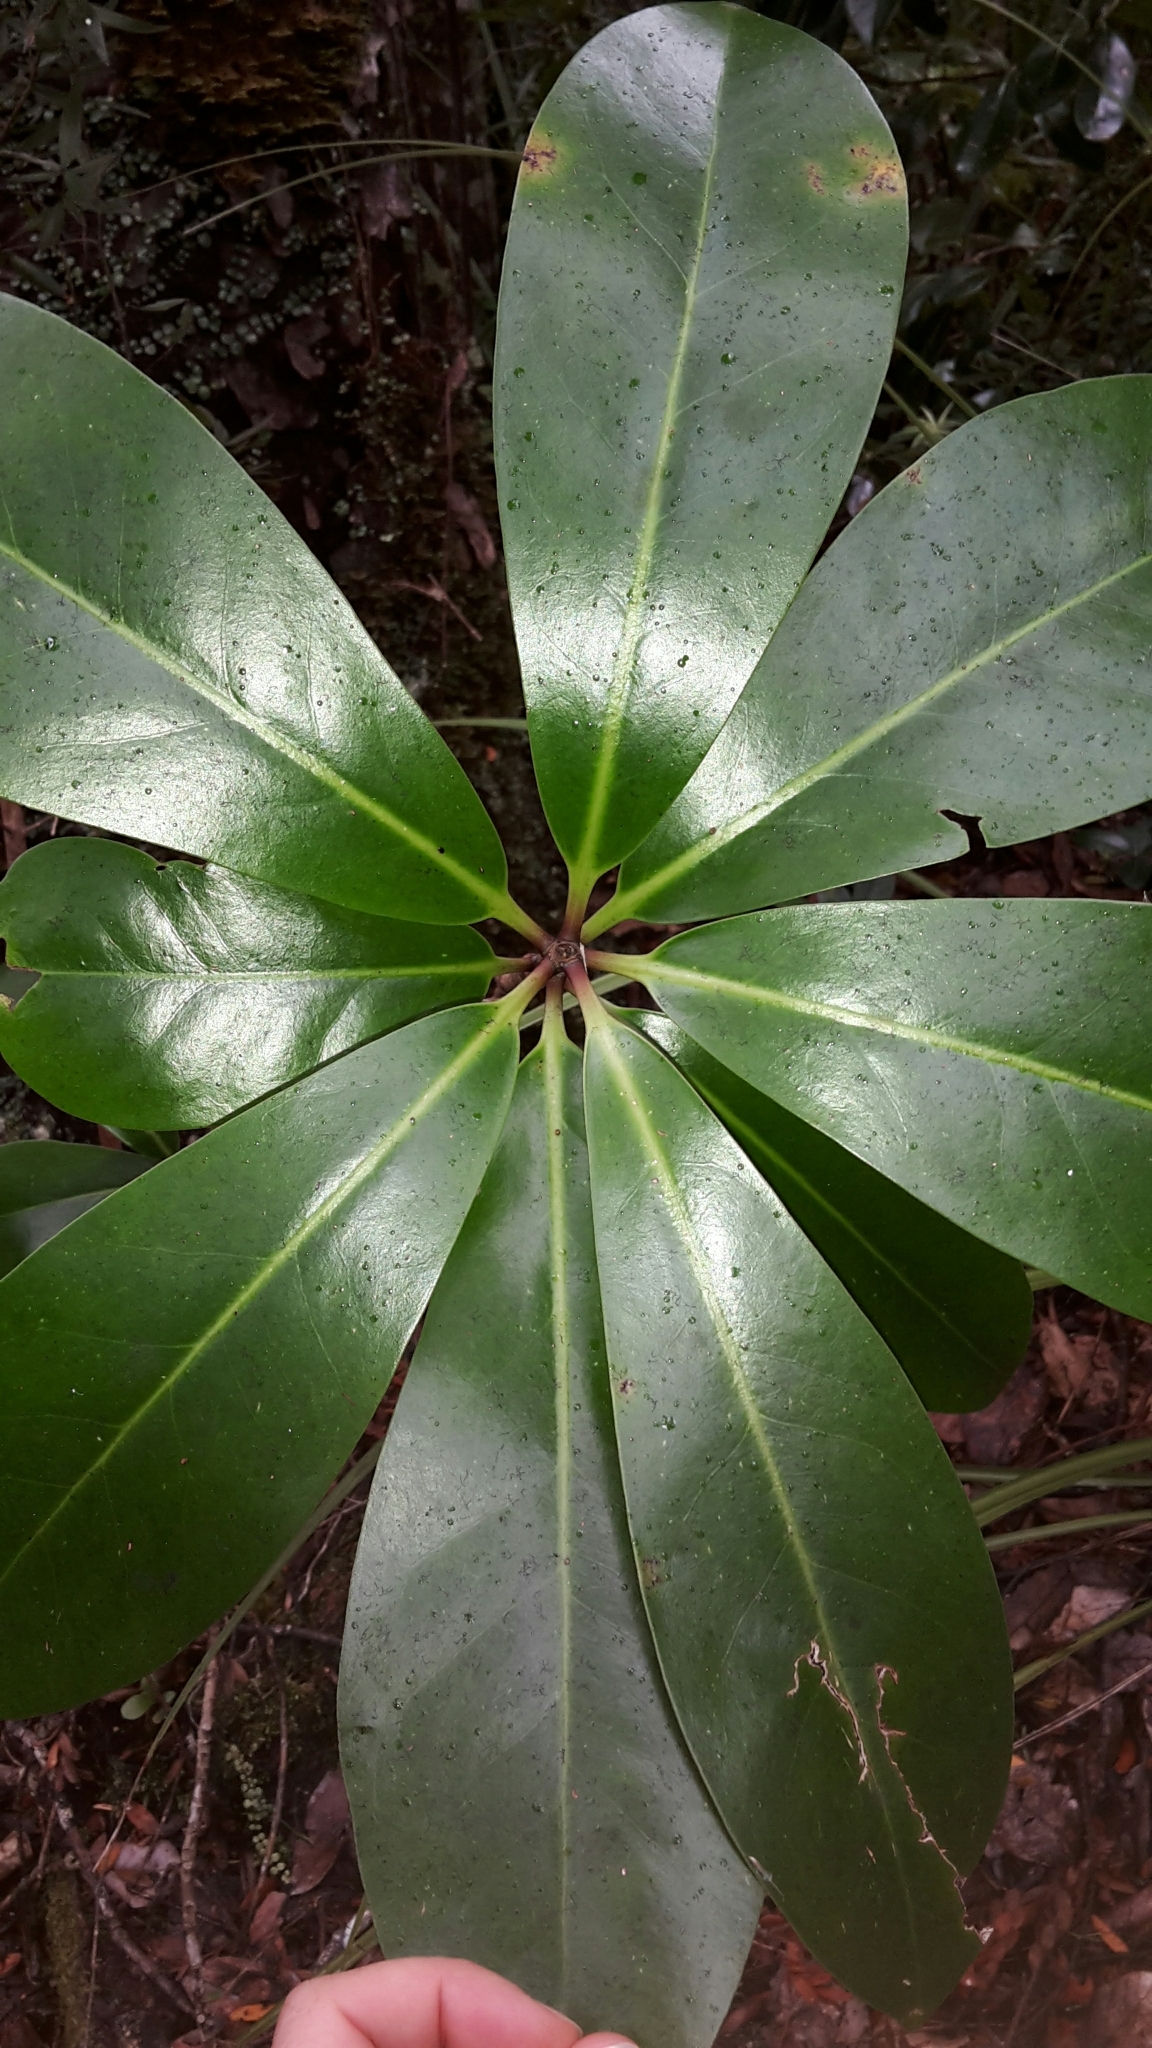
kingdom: Plantae
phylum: Tracheophyta
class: Magnoliopsida
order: Cucurbitales
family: Corynocarpaceae
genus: Corynocarpus
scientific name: Corynocarpus laevigatus
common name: New zealand laurel
